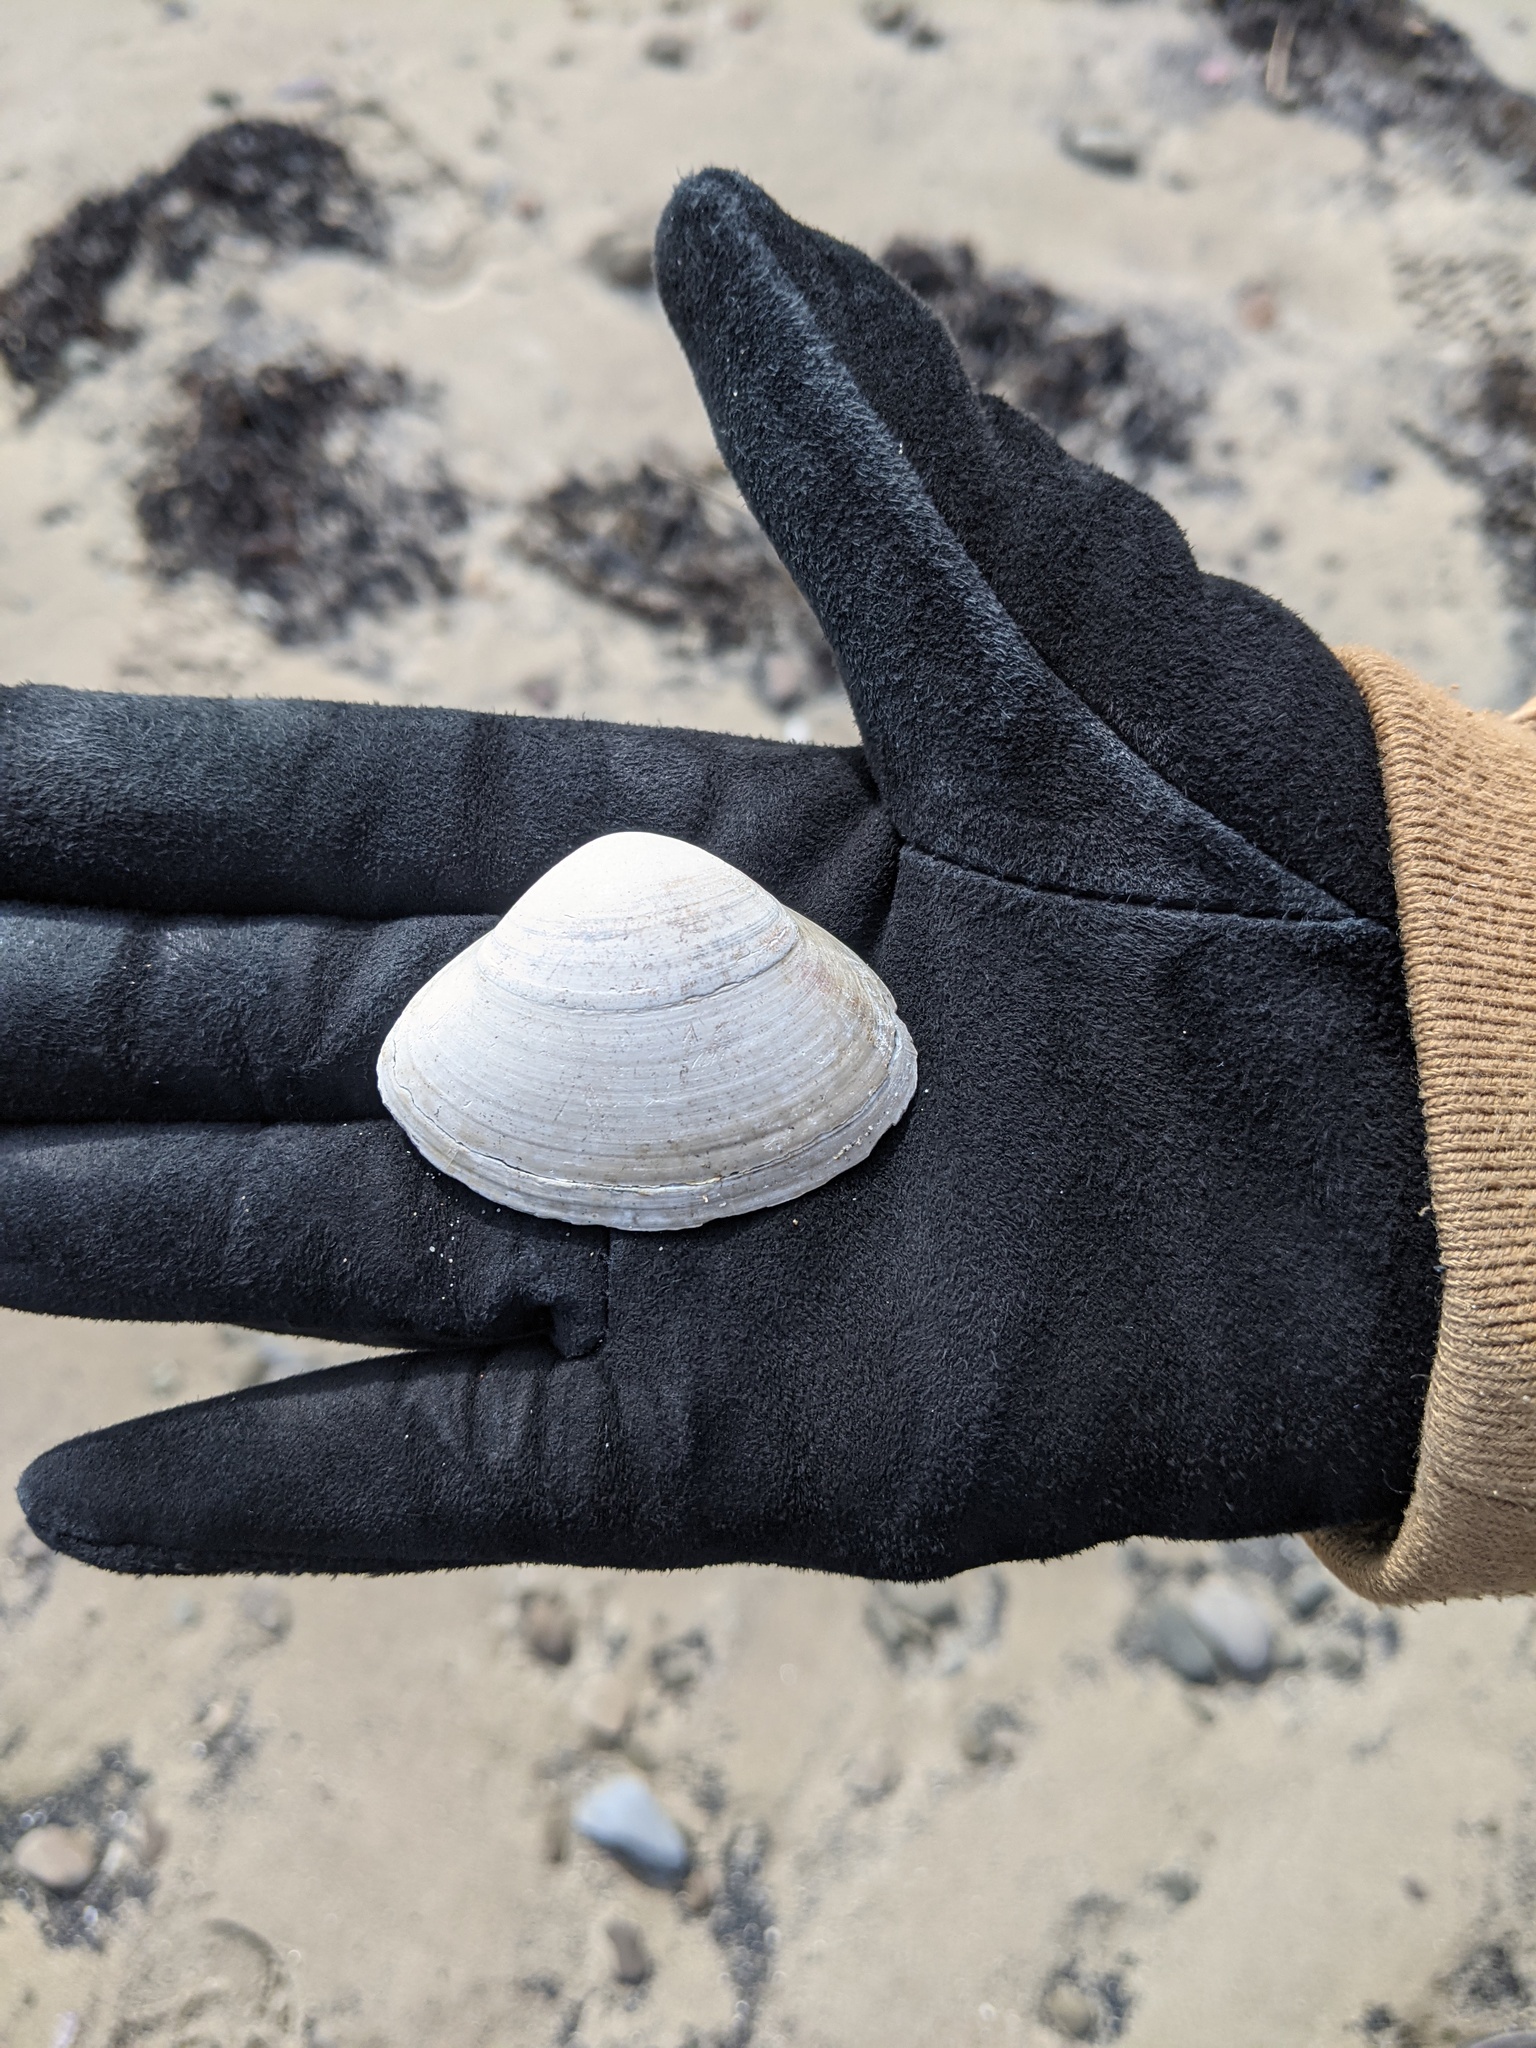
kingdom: Animalia
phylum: Mollusca
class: Bivalvia
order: Venerida
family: Mactridae
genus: Spisula
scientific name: Spisula solidissima
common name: Atlantic surf clam
